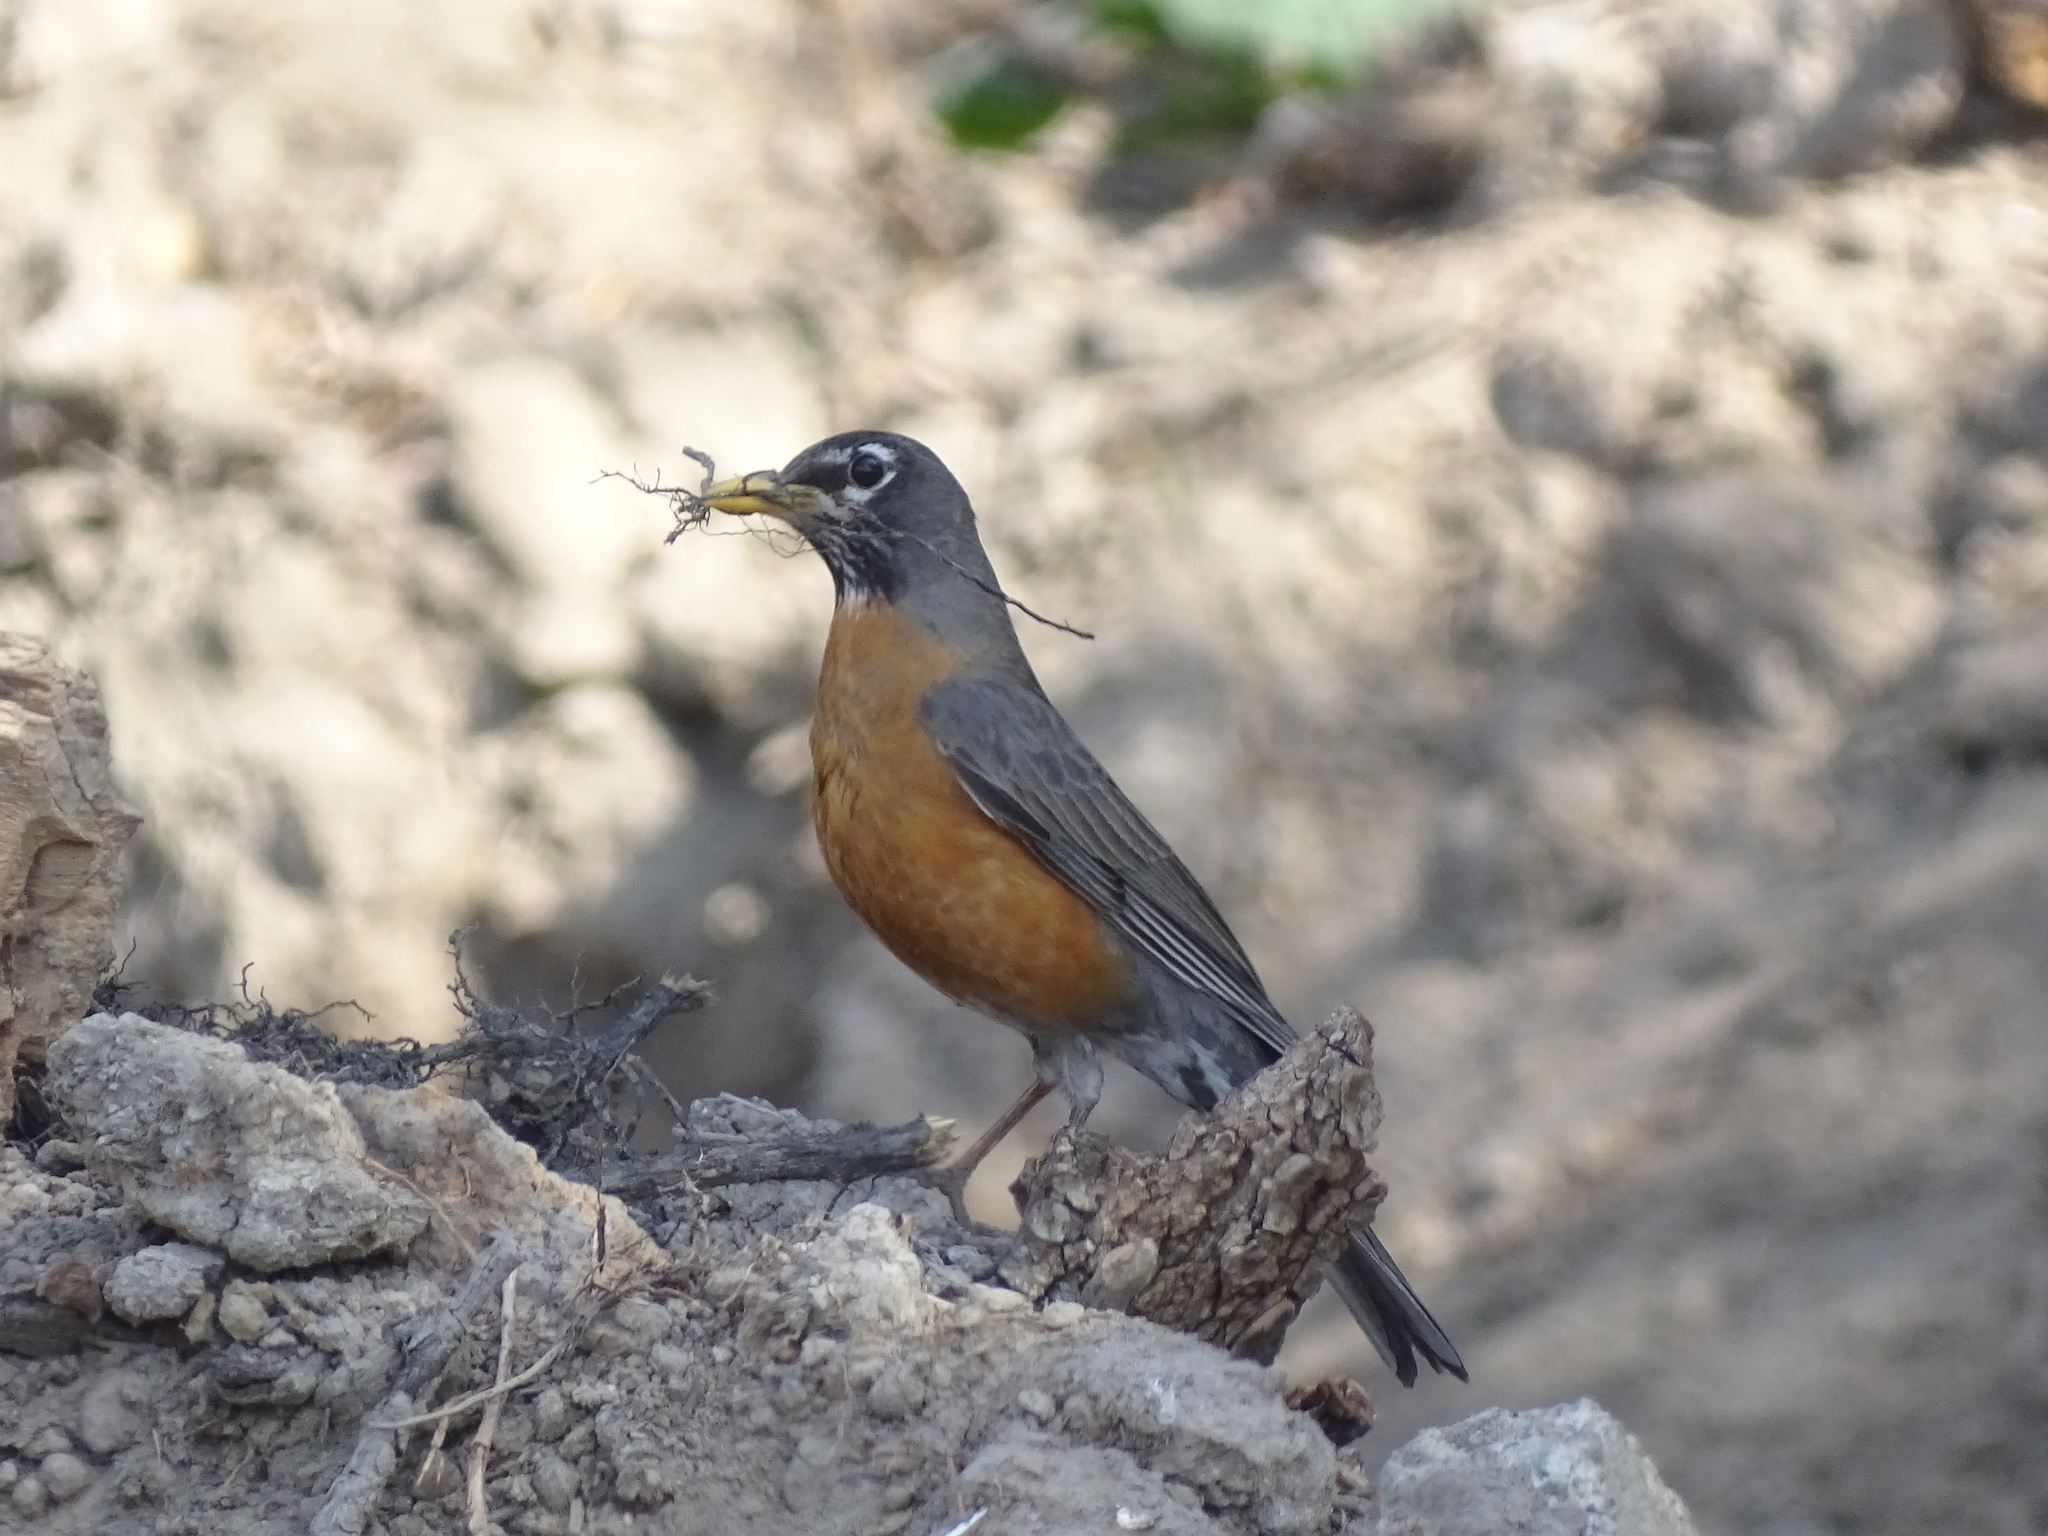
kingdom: Animalia
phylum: Chordata
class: Aves
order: Passeriformes
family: Turdidae
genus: Turdus
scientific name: Turdus migratorius
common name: American robin
